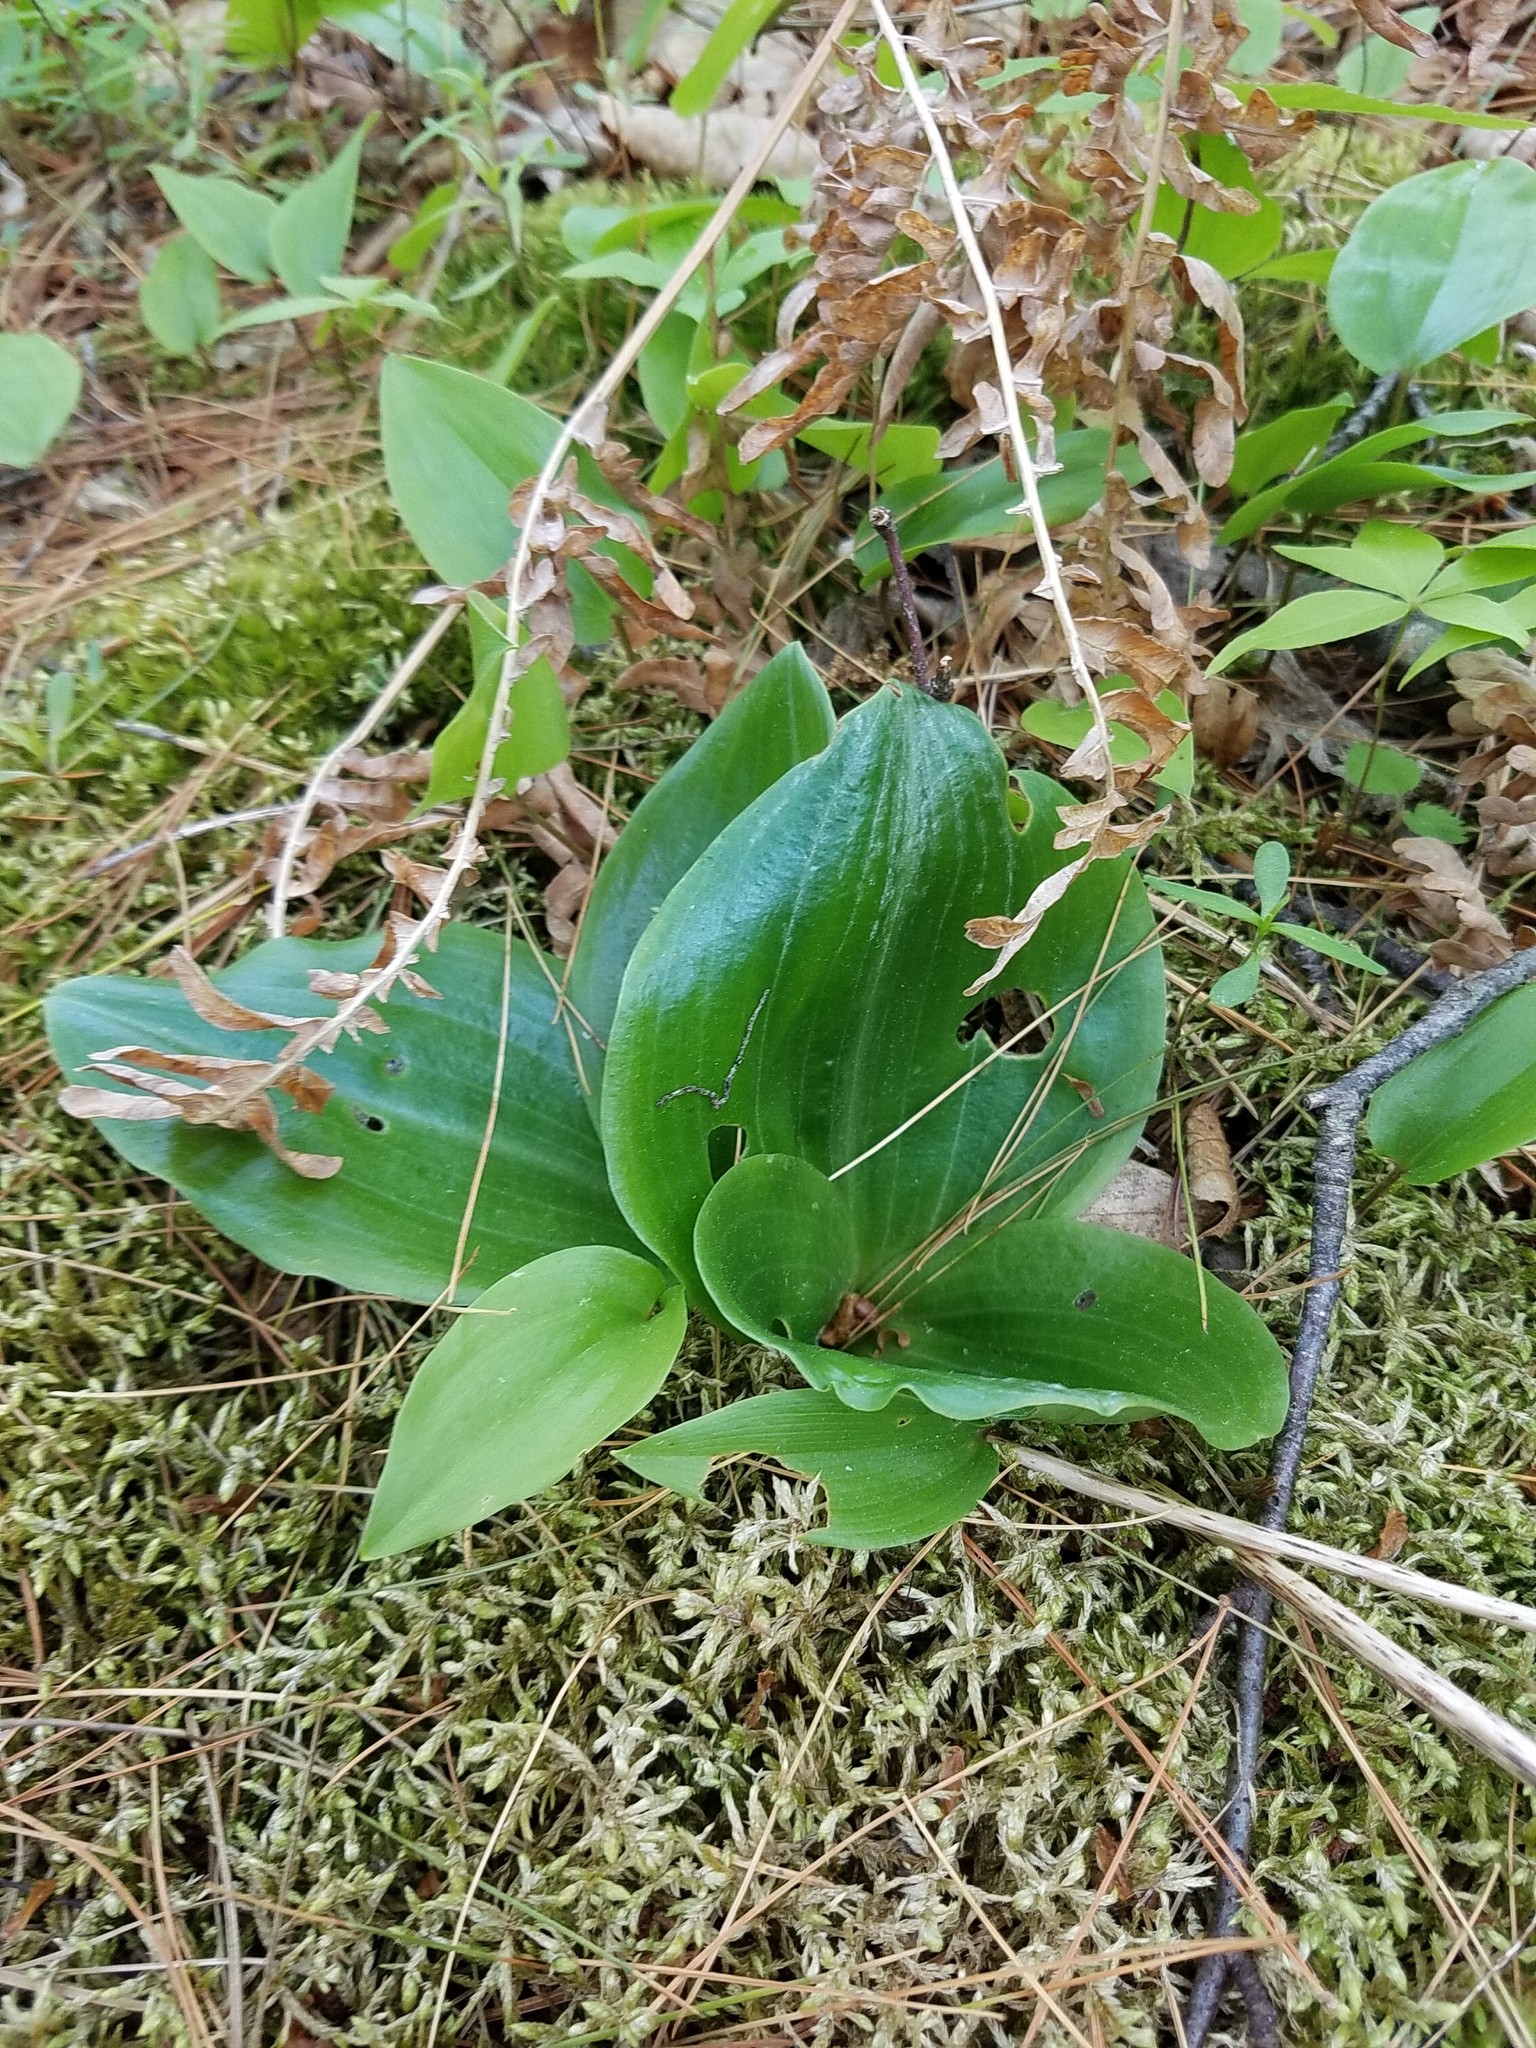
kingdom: Plantae
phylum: Tracheophyta
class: Liliopsida
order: Asparagales
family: Orchidaceae
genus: Platanthera
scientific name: Platanthera orbiculata
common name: Large round-leaved orchid
